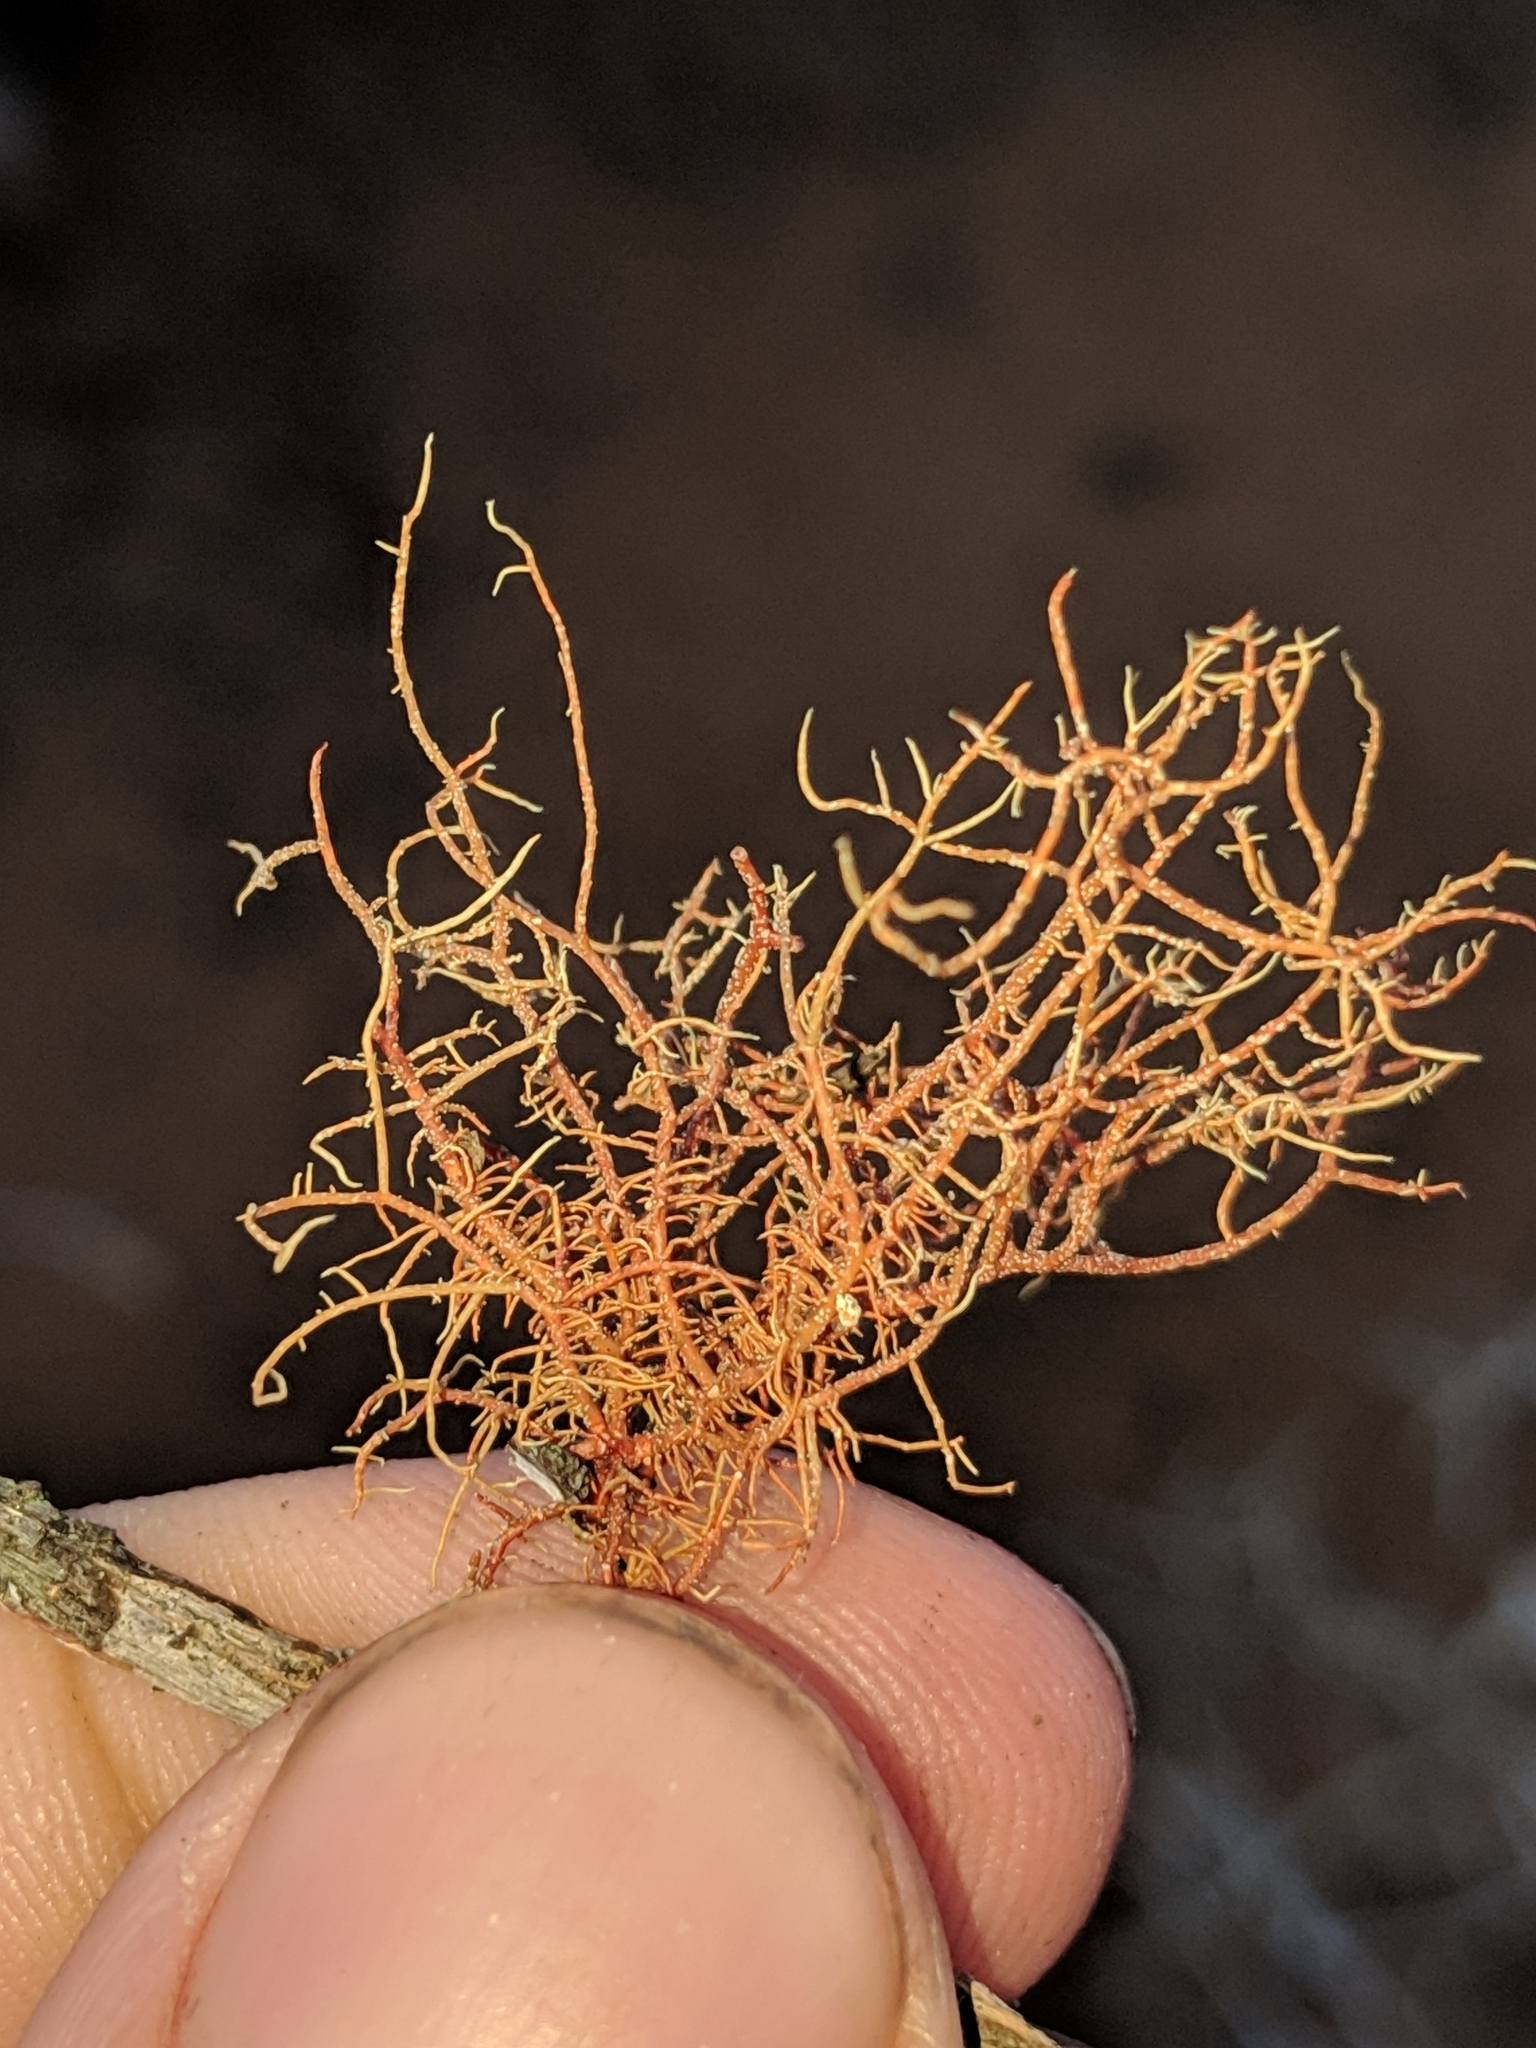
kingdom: Fungi
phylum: Ascomycota
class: Lecanoromycetes
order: Lecanorales
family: Parmeliaceae
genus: Usnea
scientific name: Usnea rubicunda
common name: Red beard lichen
